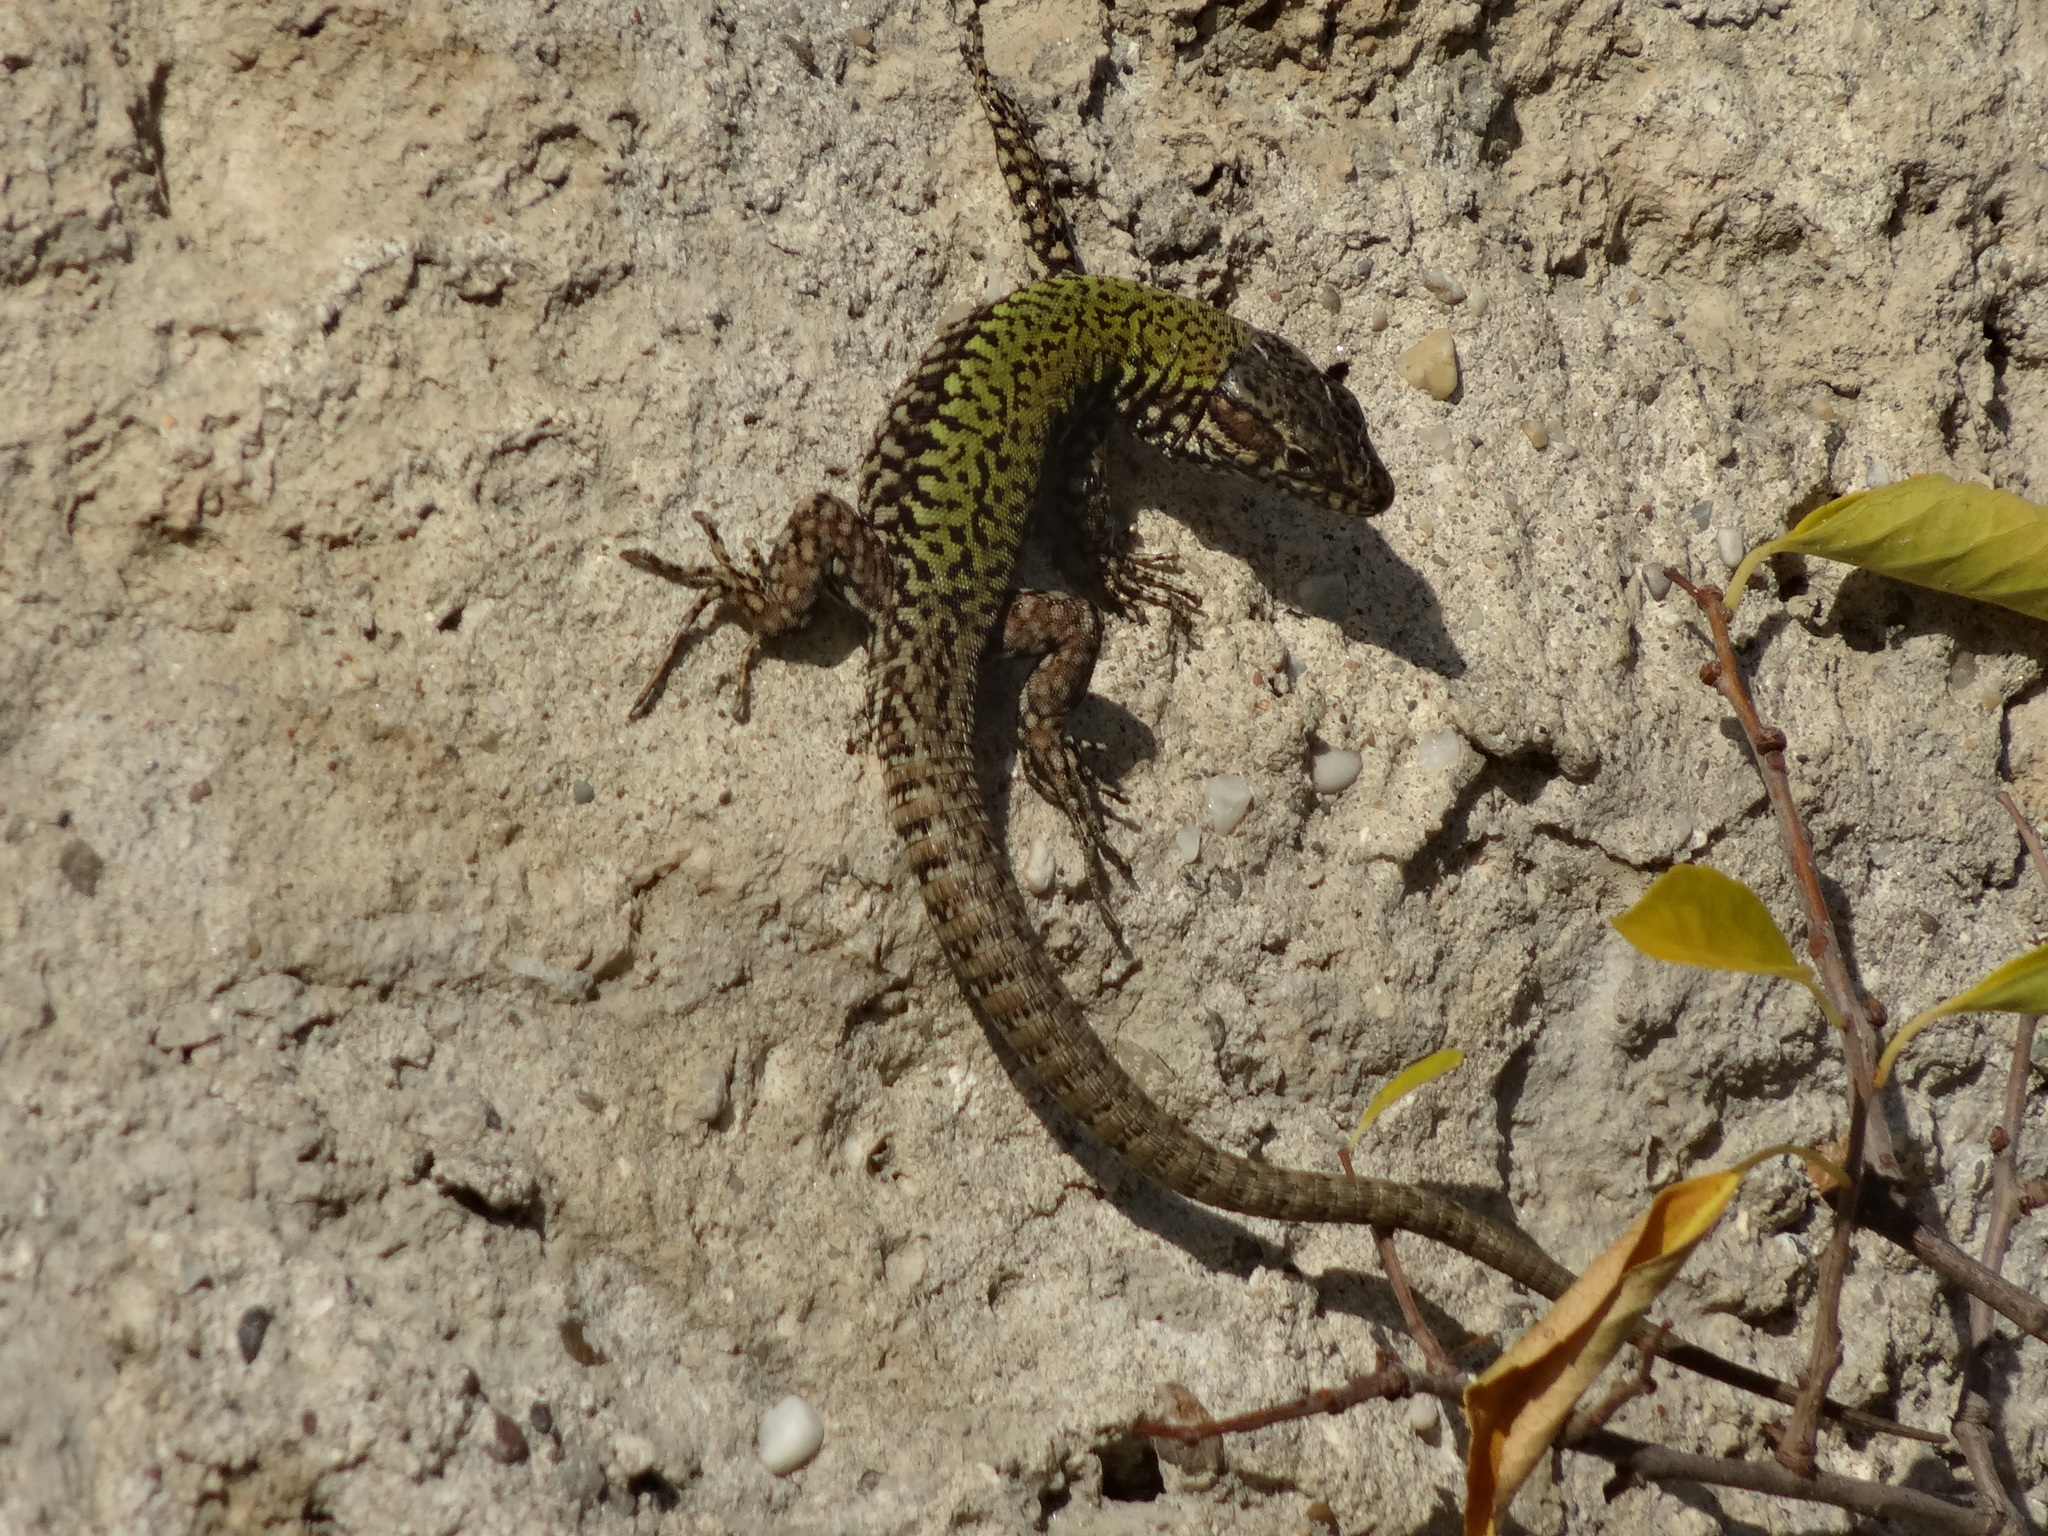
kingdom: Animalia
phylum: Chordata
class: Squamata
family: Lacertidae
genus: Podarcis
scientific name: Podarcis muralis
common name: Common wall lizard
